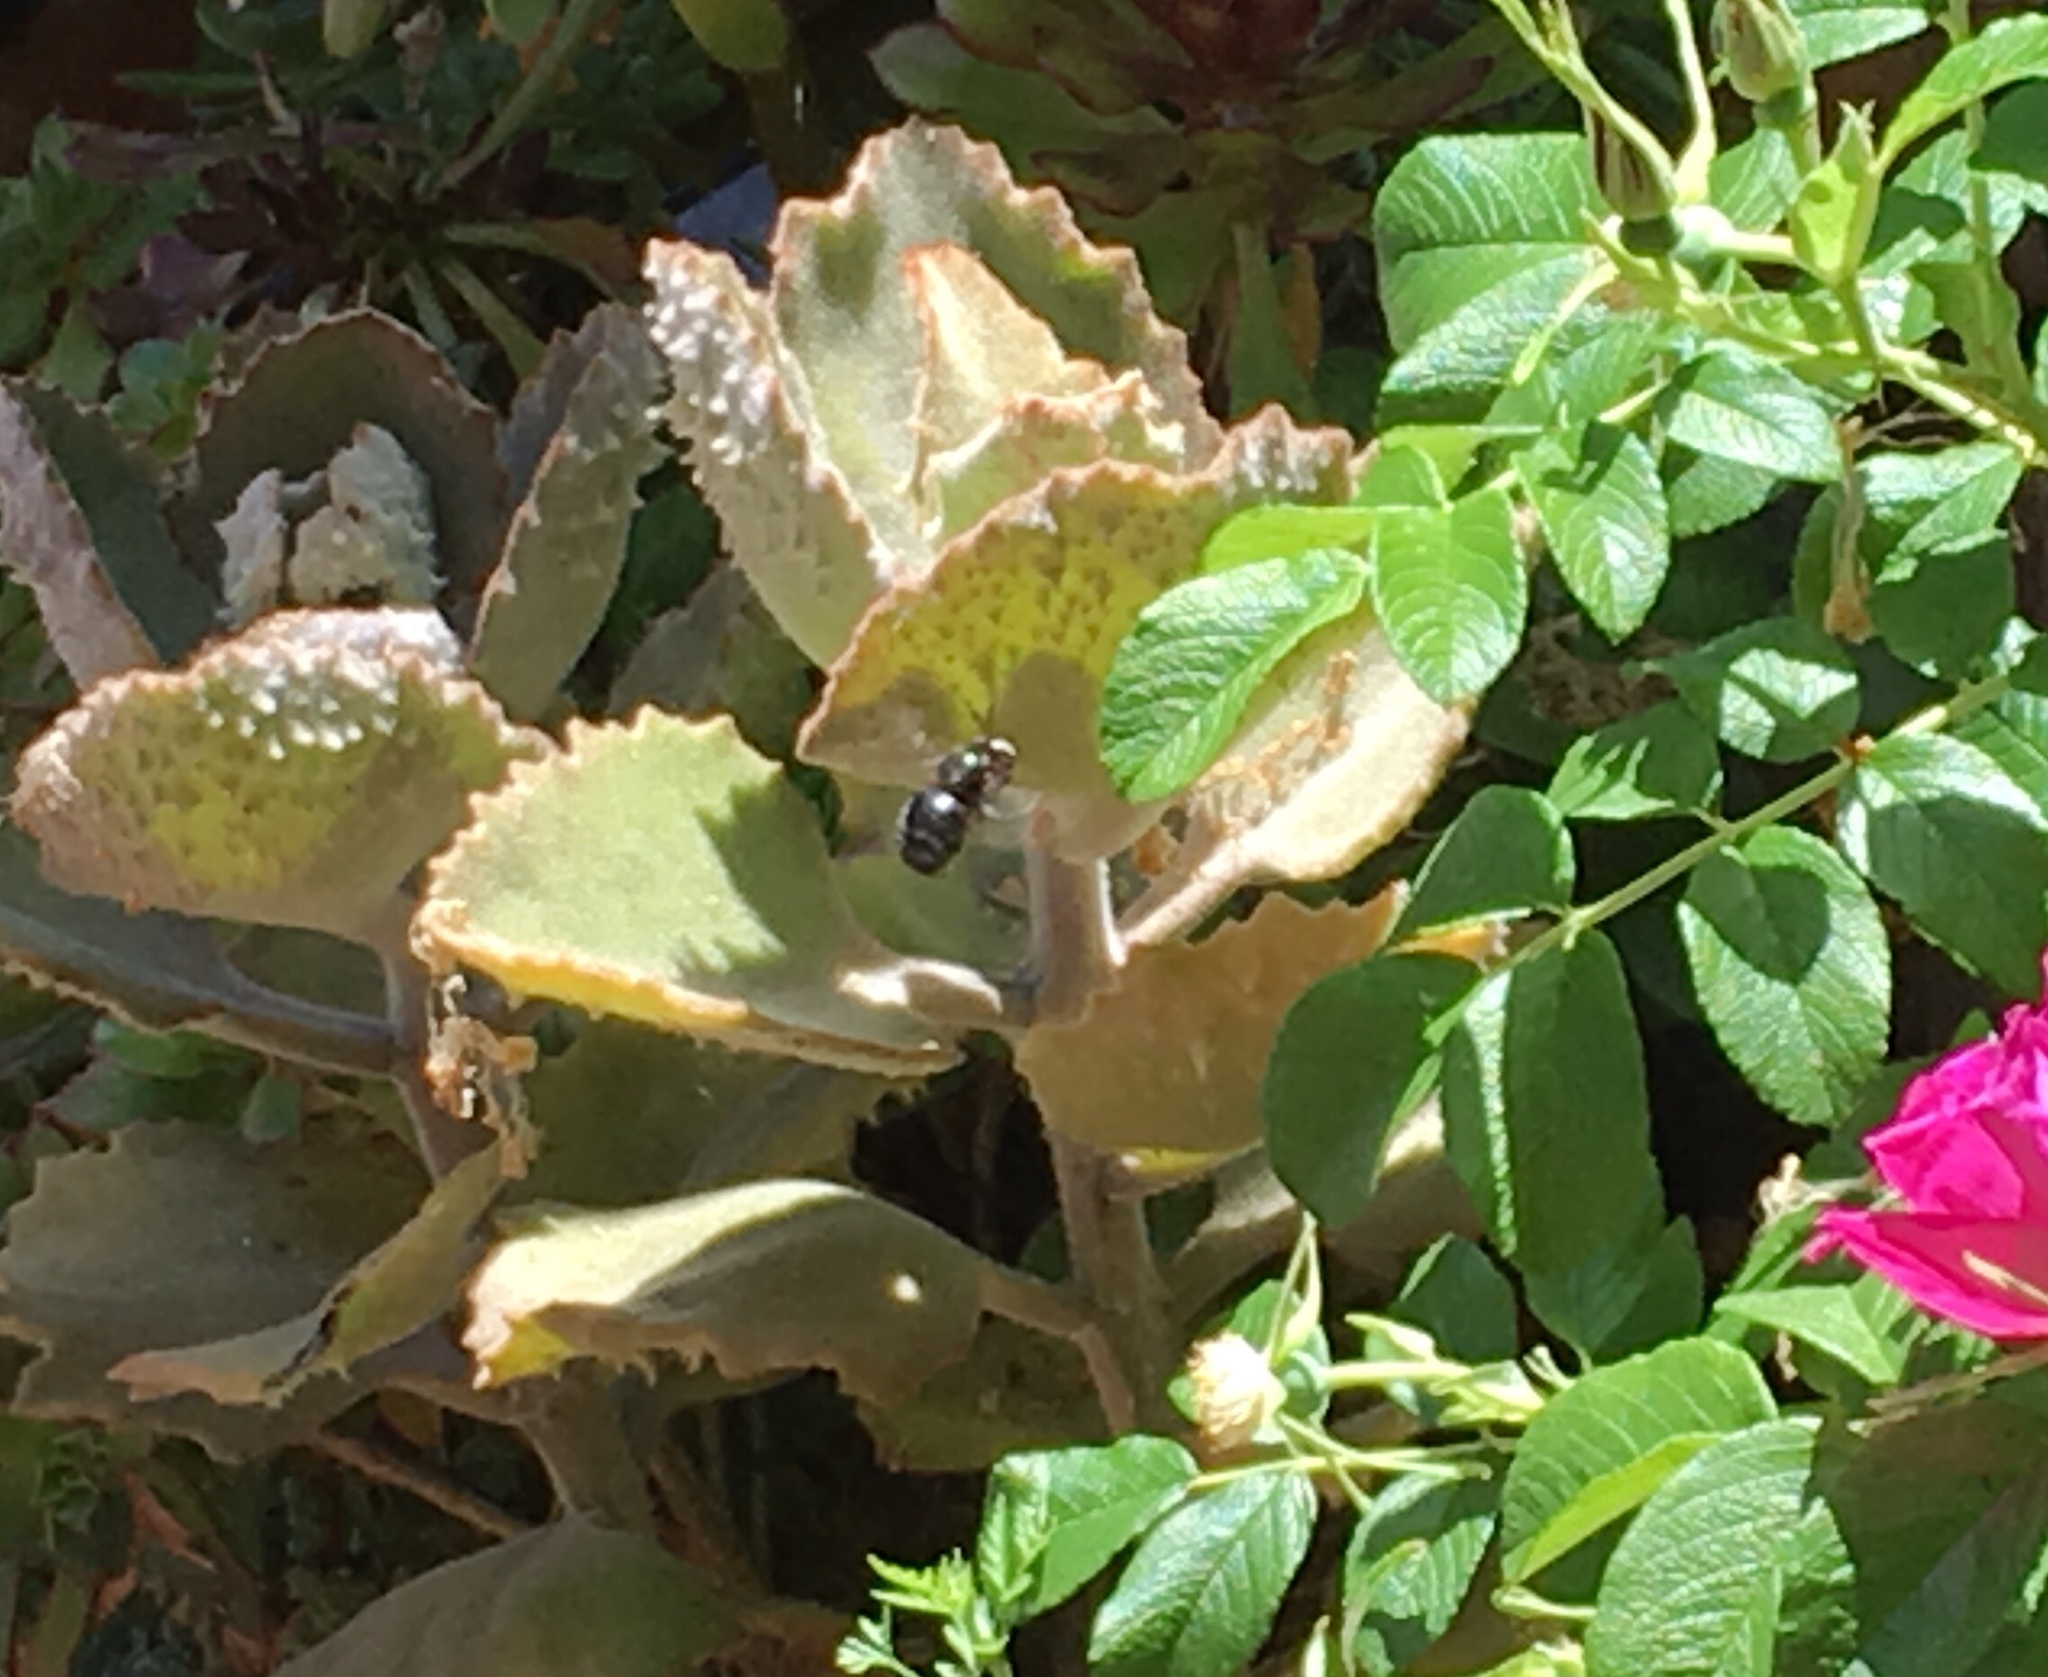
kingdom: Animalia
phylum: Arthropoda
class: Insecta
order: Hymenoptera
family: Apidae
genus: Xylocopa
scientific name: Xylocopa tabaniformis
